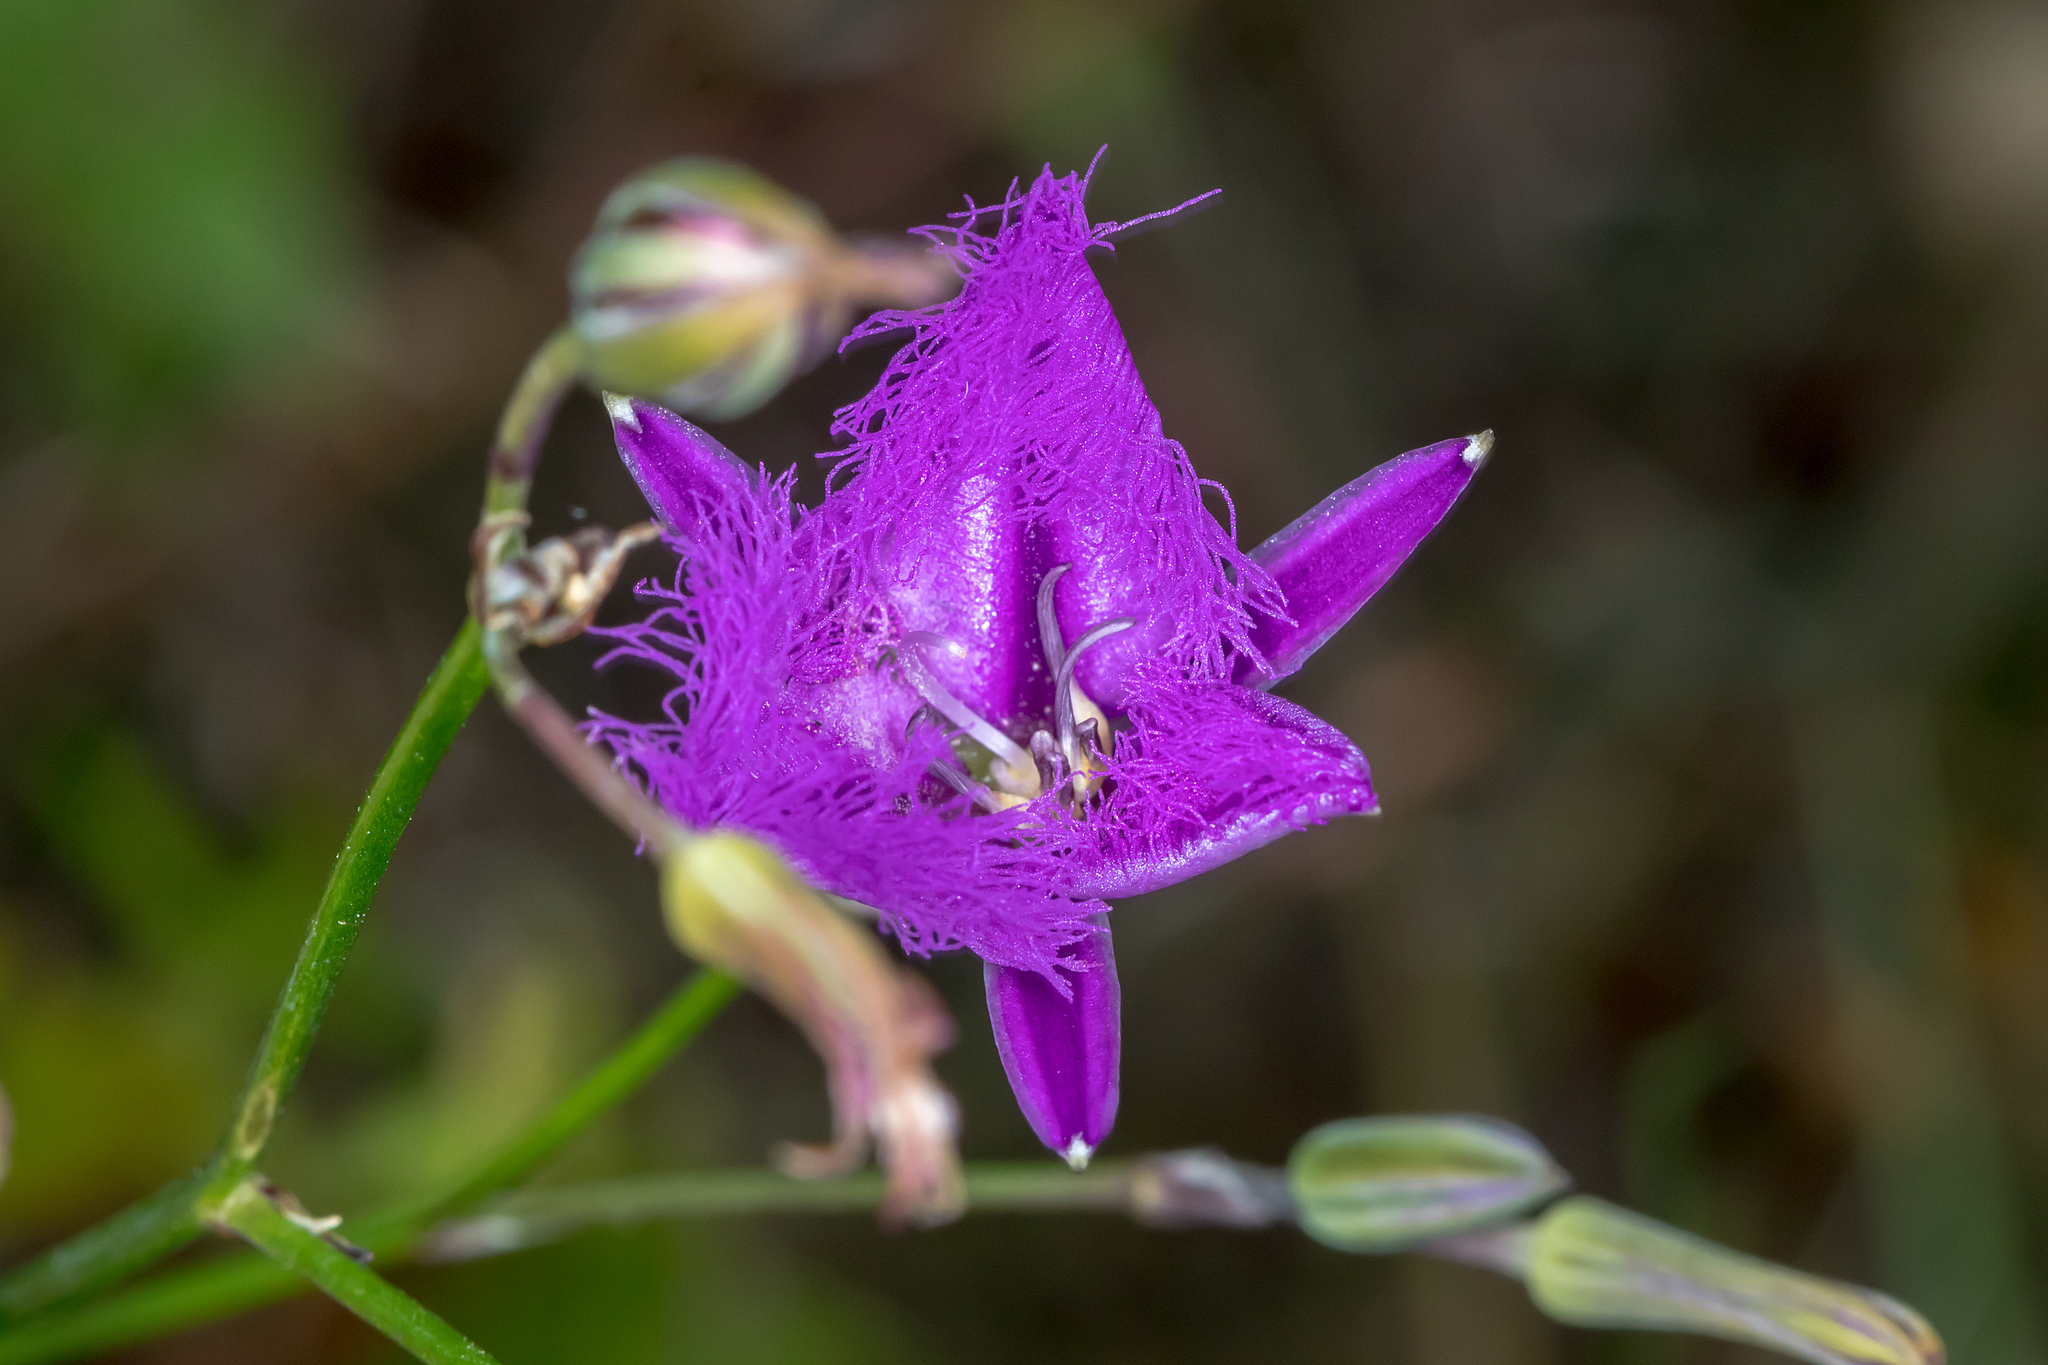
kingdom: Plantae
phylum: Tracheophyta
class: Liliopsida
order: Asparagales
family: Asparagaceae
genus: Thysanotus
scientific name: Thysanotus tuberosus
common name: Common fringed-lily
